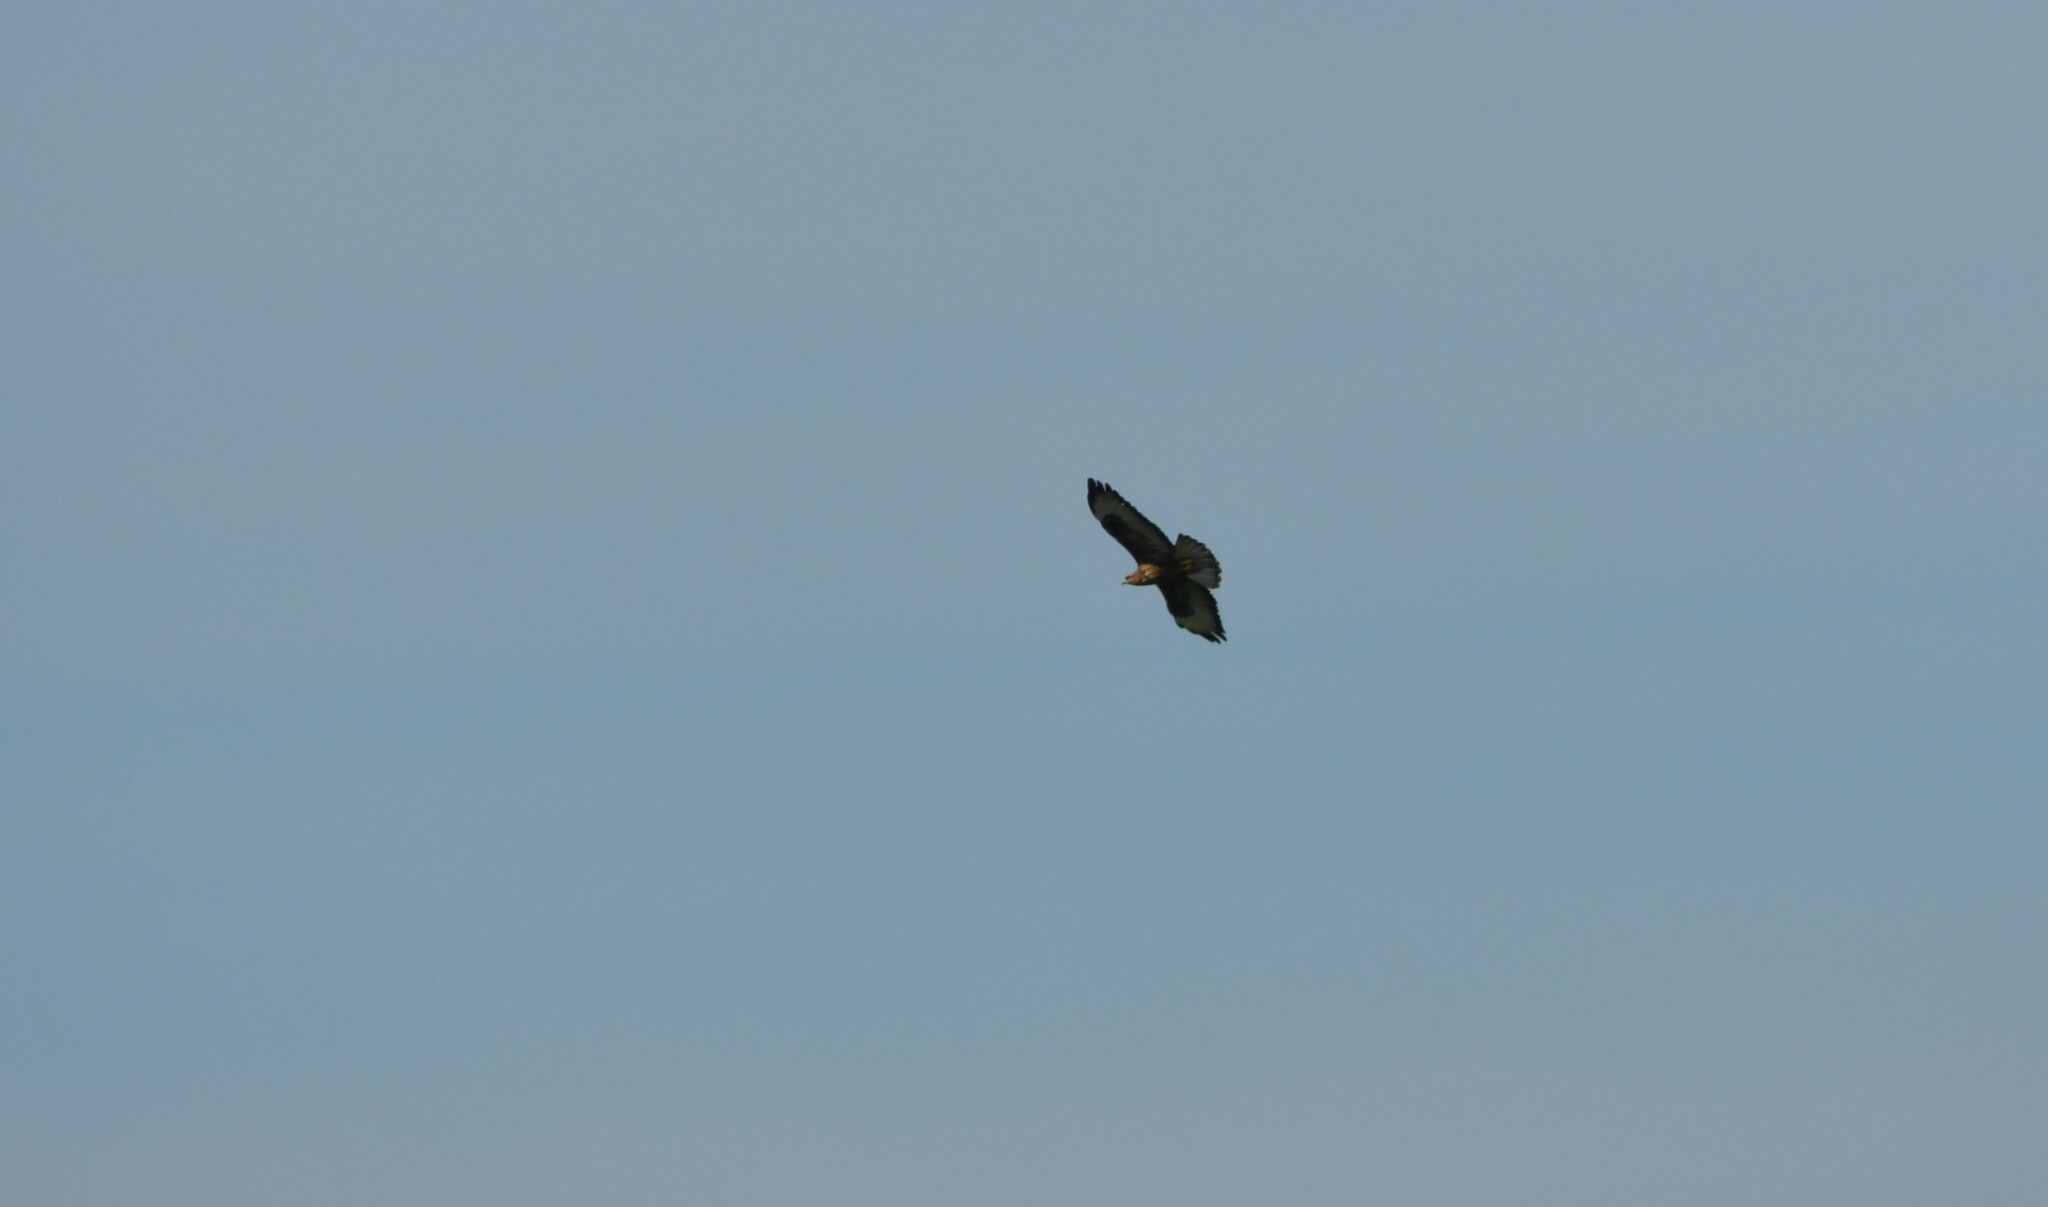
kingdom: Animalia
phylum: Chordata
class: Aves
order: Accipitriformes
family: Accipitridae
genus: Buteo
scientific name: Buteo buteo
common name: Common buzzard
